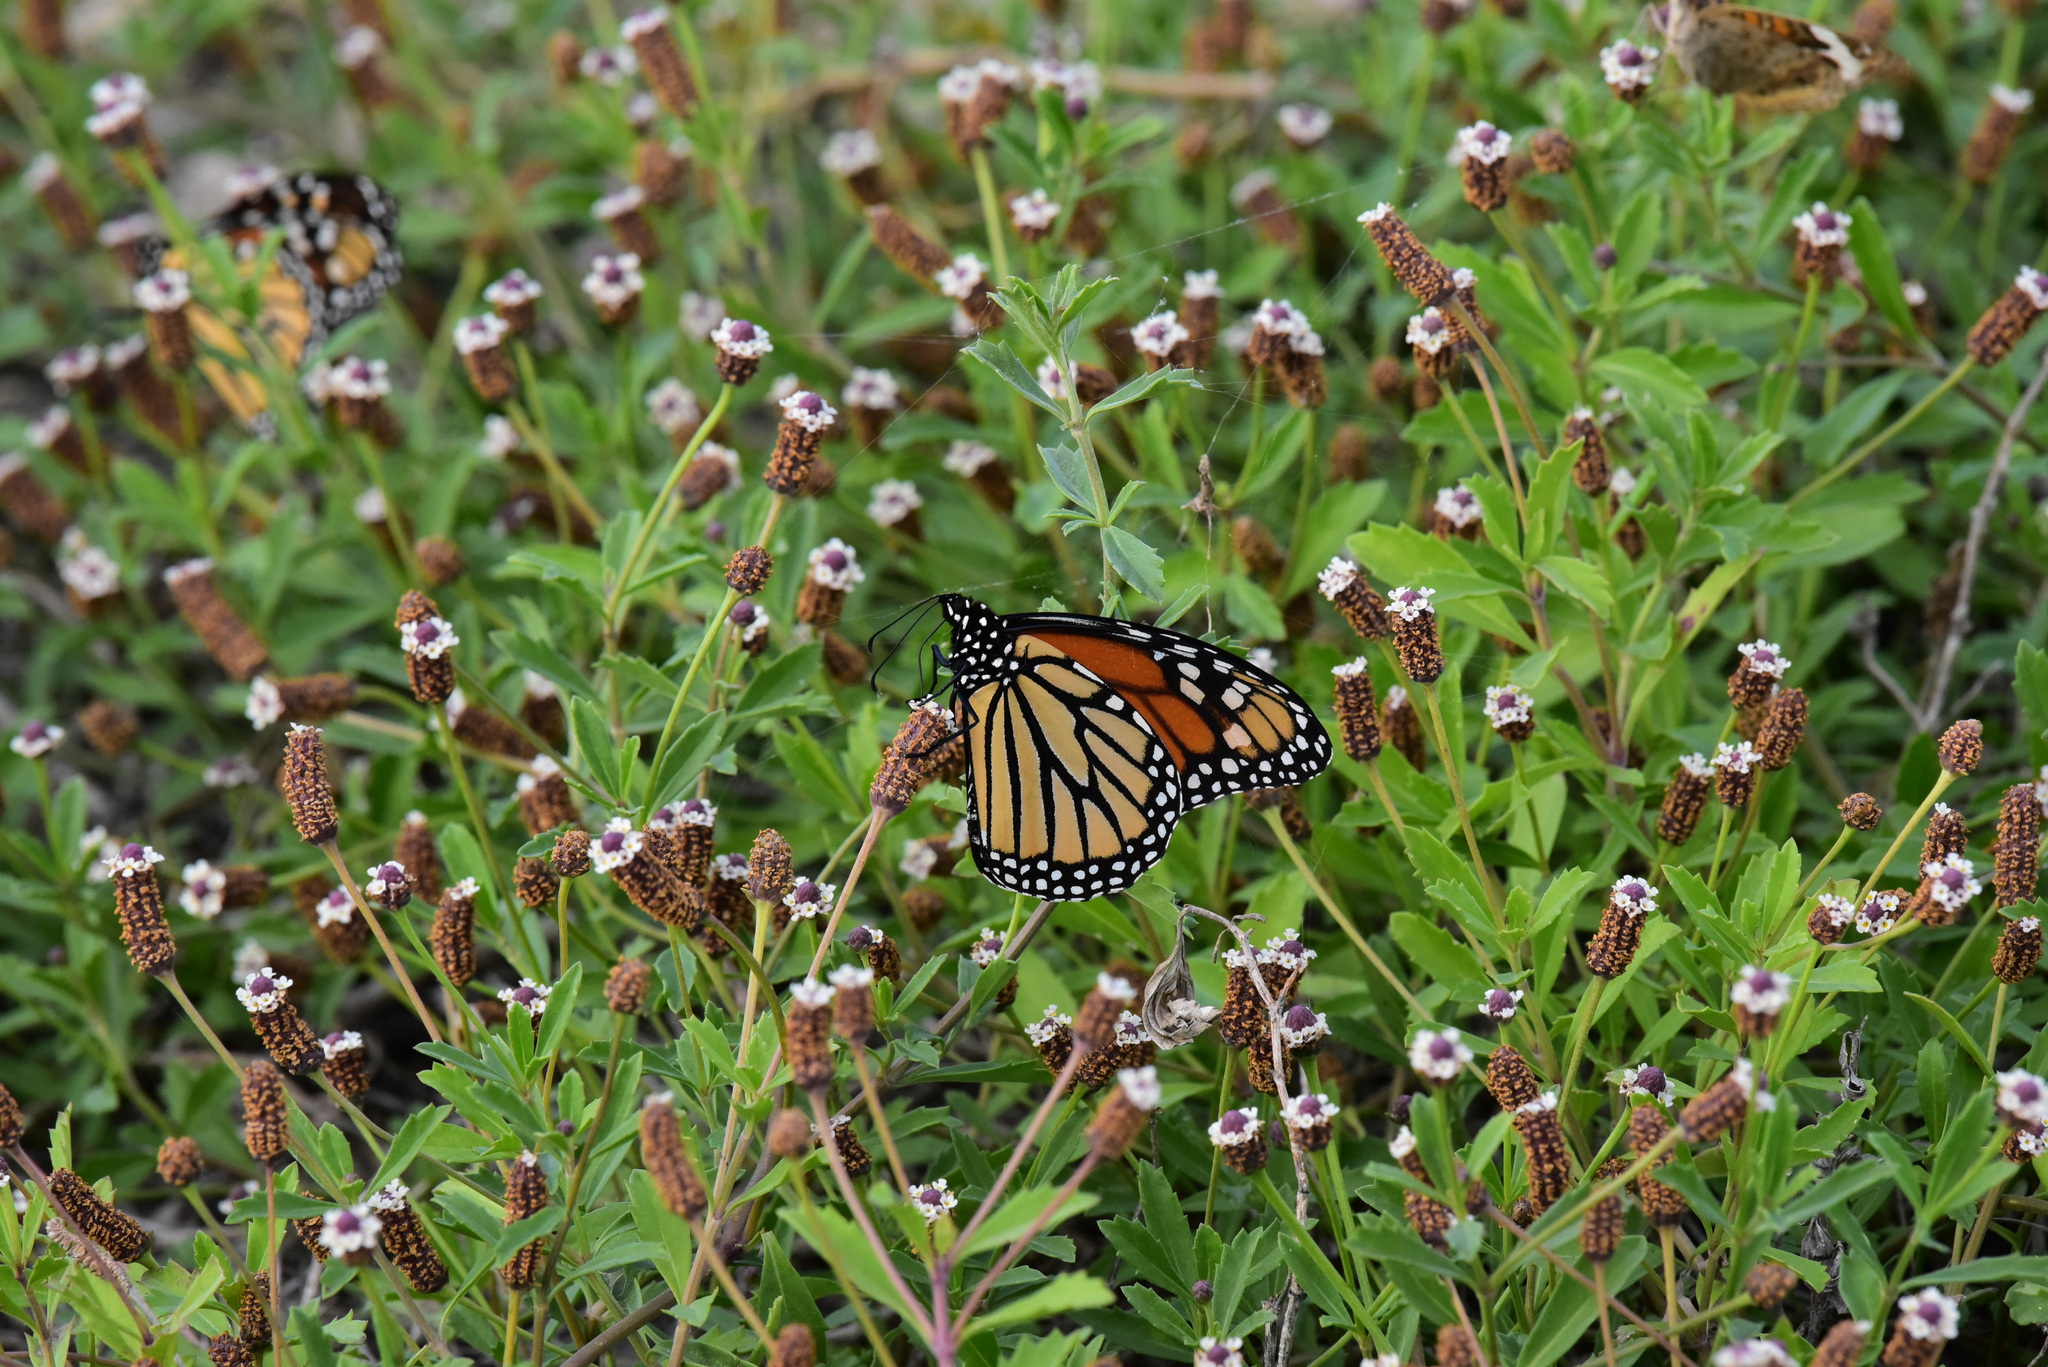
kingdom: Animalia
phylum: Arthropoda
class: Insecta
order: Lepidoptera
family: Nymphalidae
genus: Danaus
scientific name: Danaus plexippus
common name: Monarch
